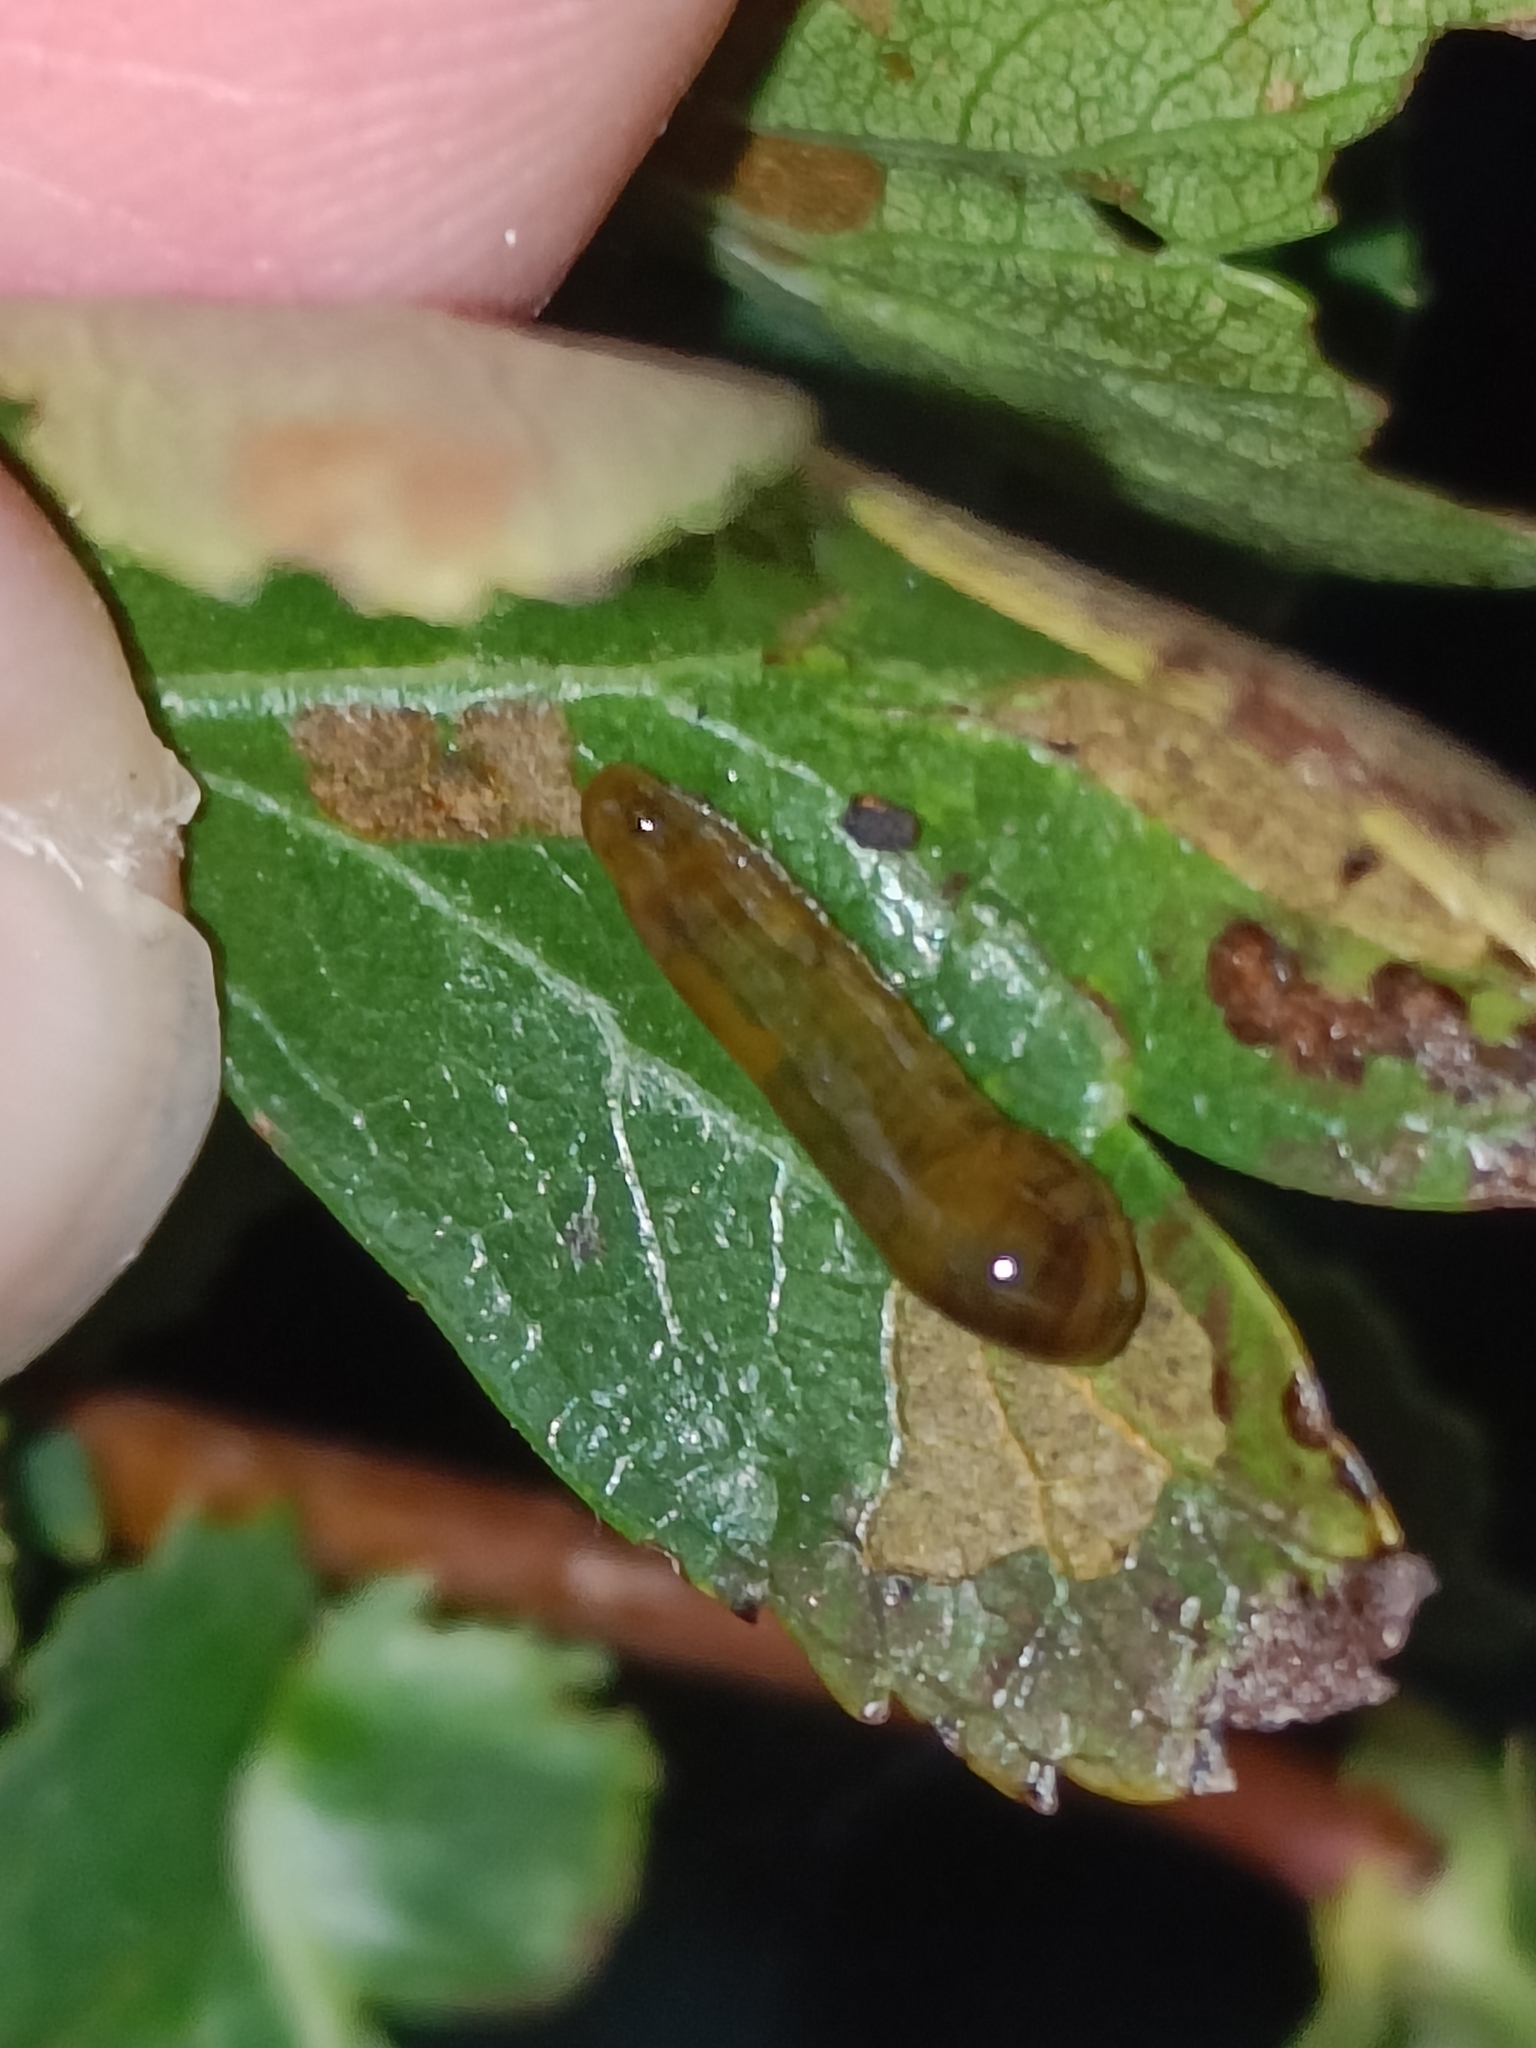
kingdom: Animalia
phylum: Arthropoda
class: Insecta
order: Hymenoptera
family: Tenthredinidae
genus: Caliroa
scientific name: Caliroa cerasi
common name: Pear sawfly
